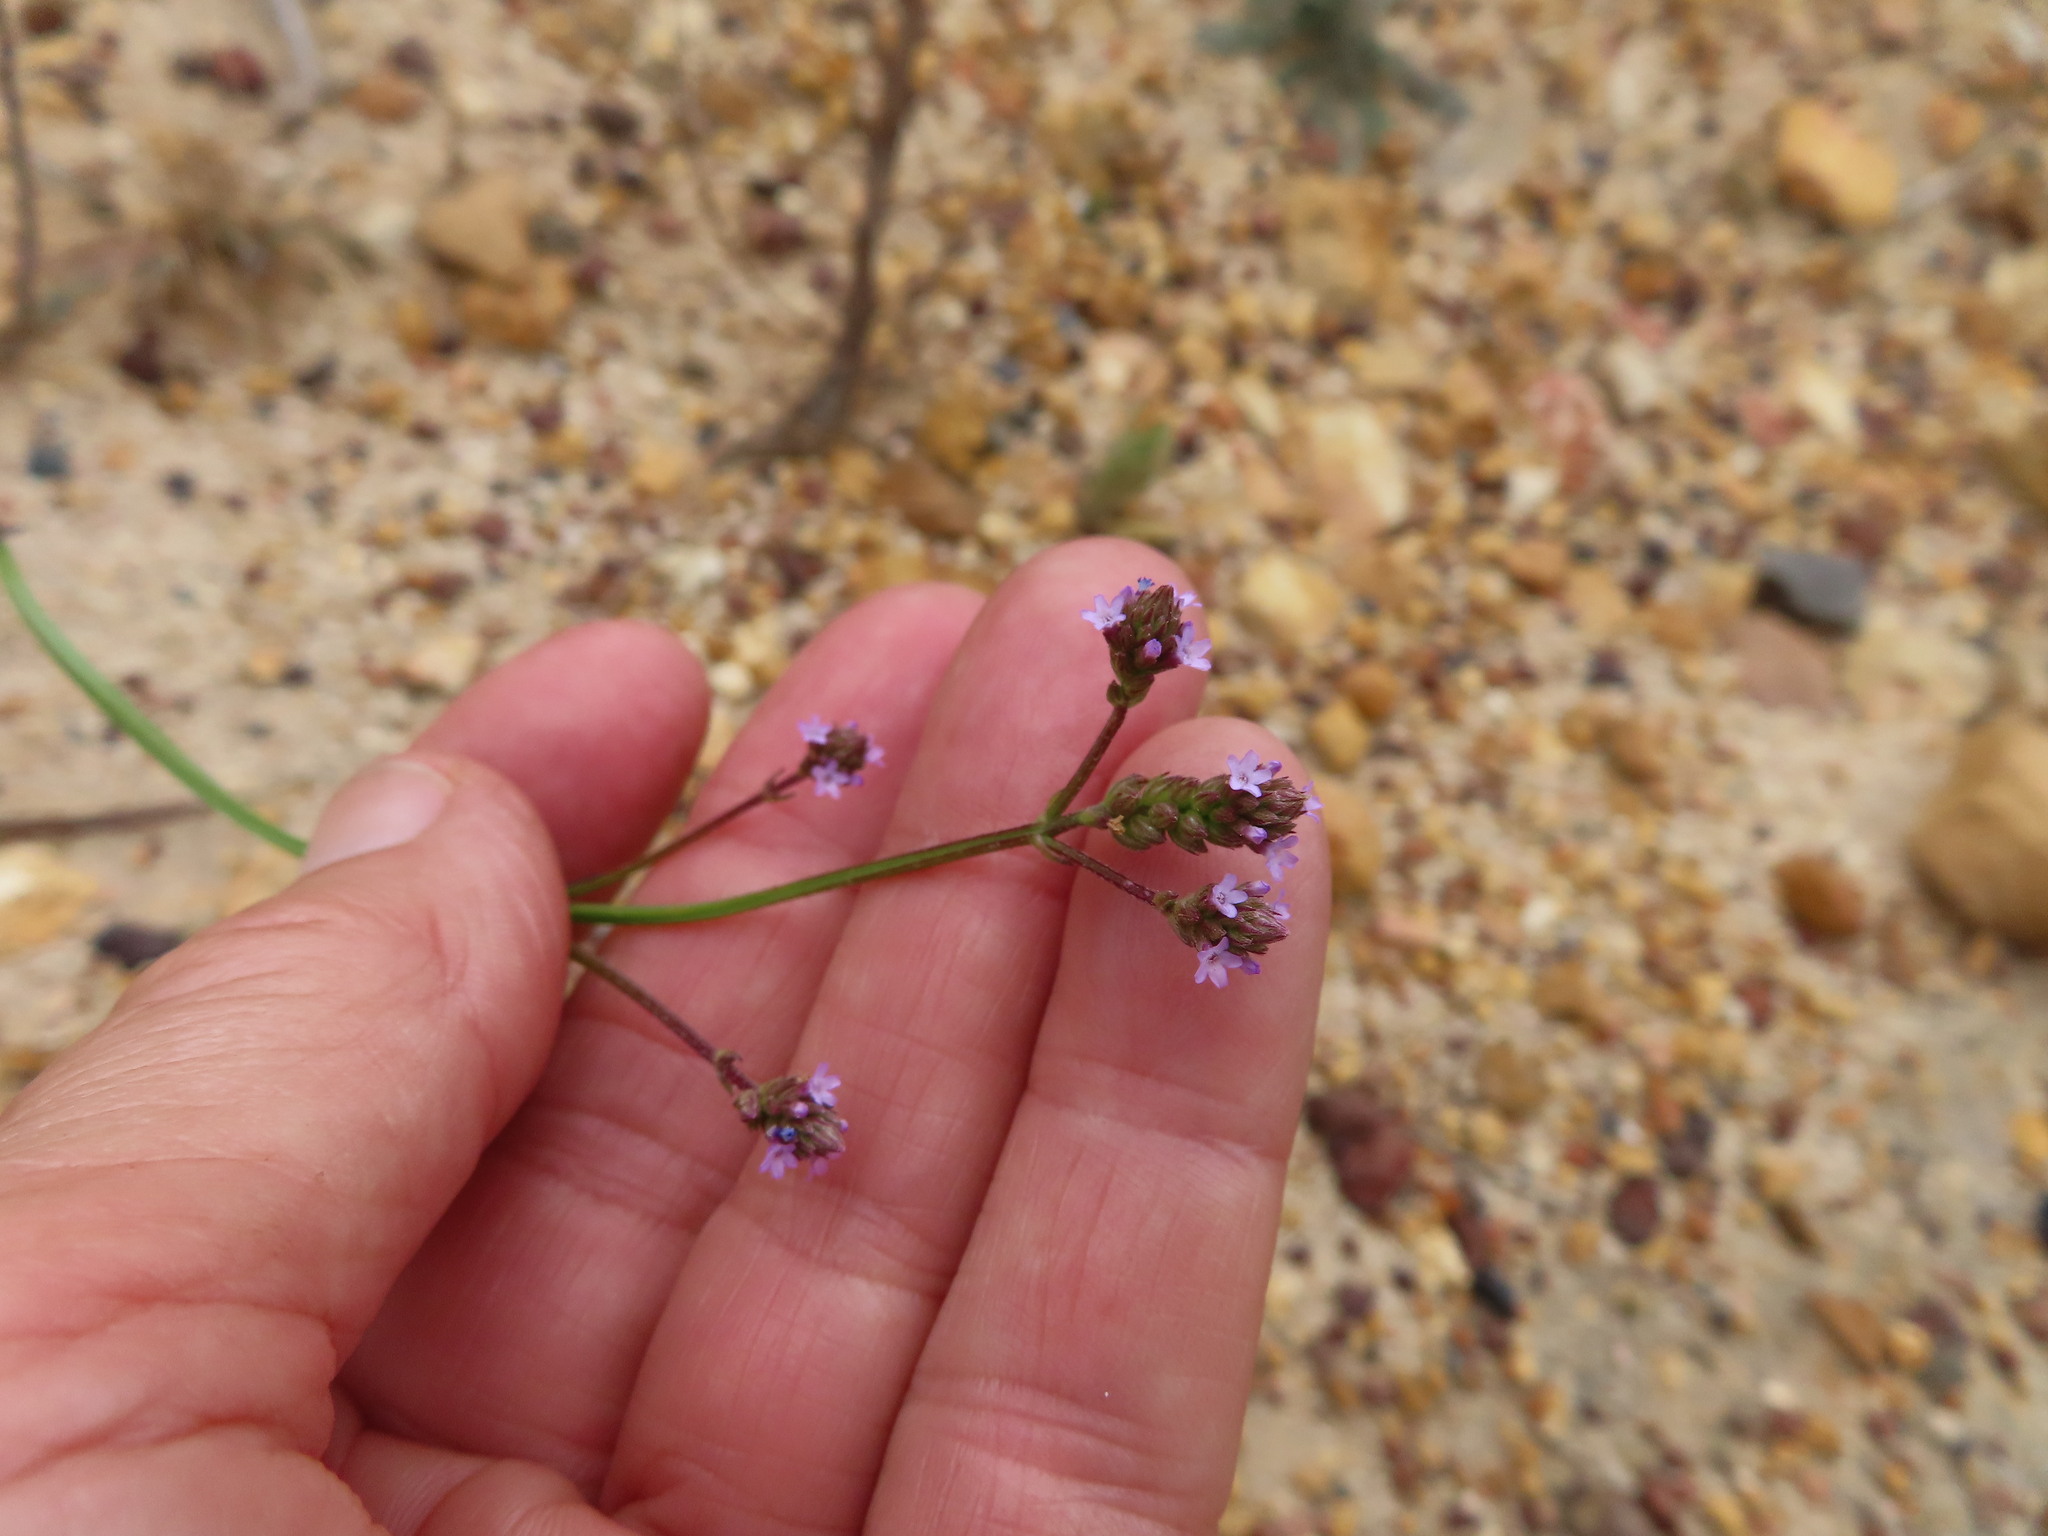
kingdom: Plantae
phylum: Tracheophyta
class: Magnoliopsida
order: Lamiales
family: Verbenaceae
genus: Verbena
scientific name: Verbena brasiliensis
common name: Brazilian vervain
